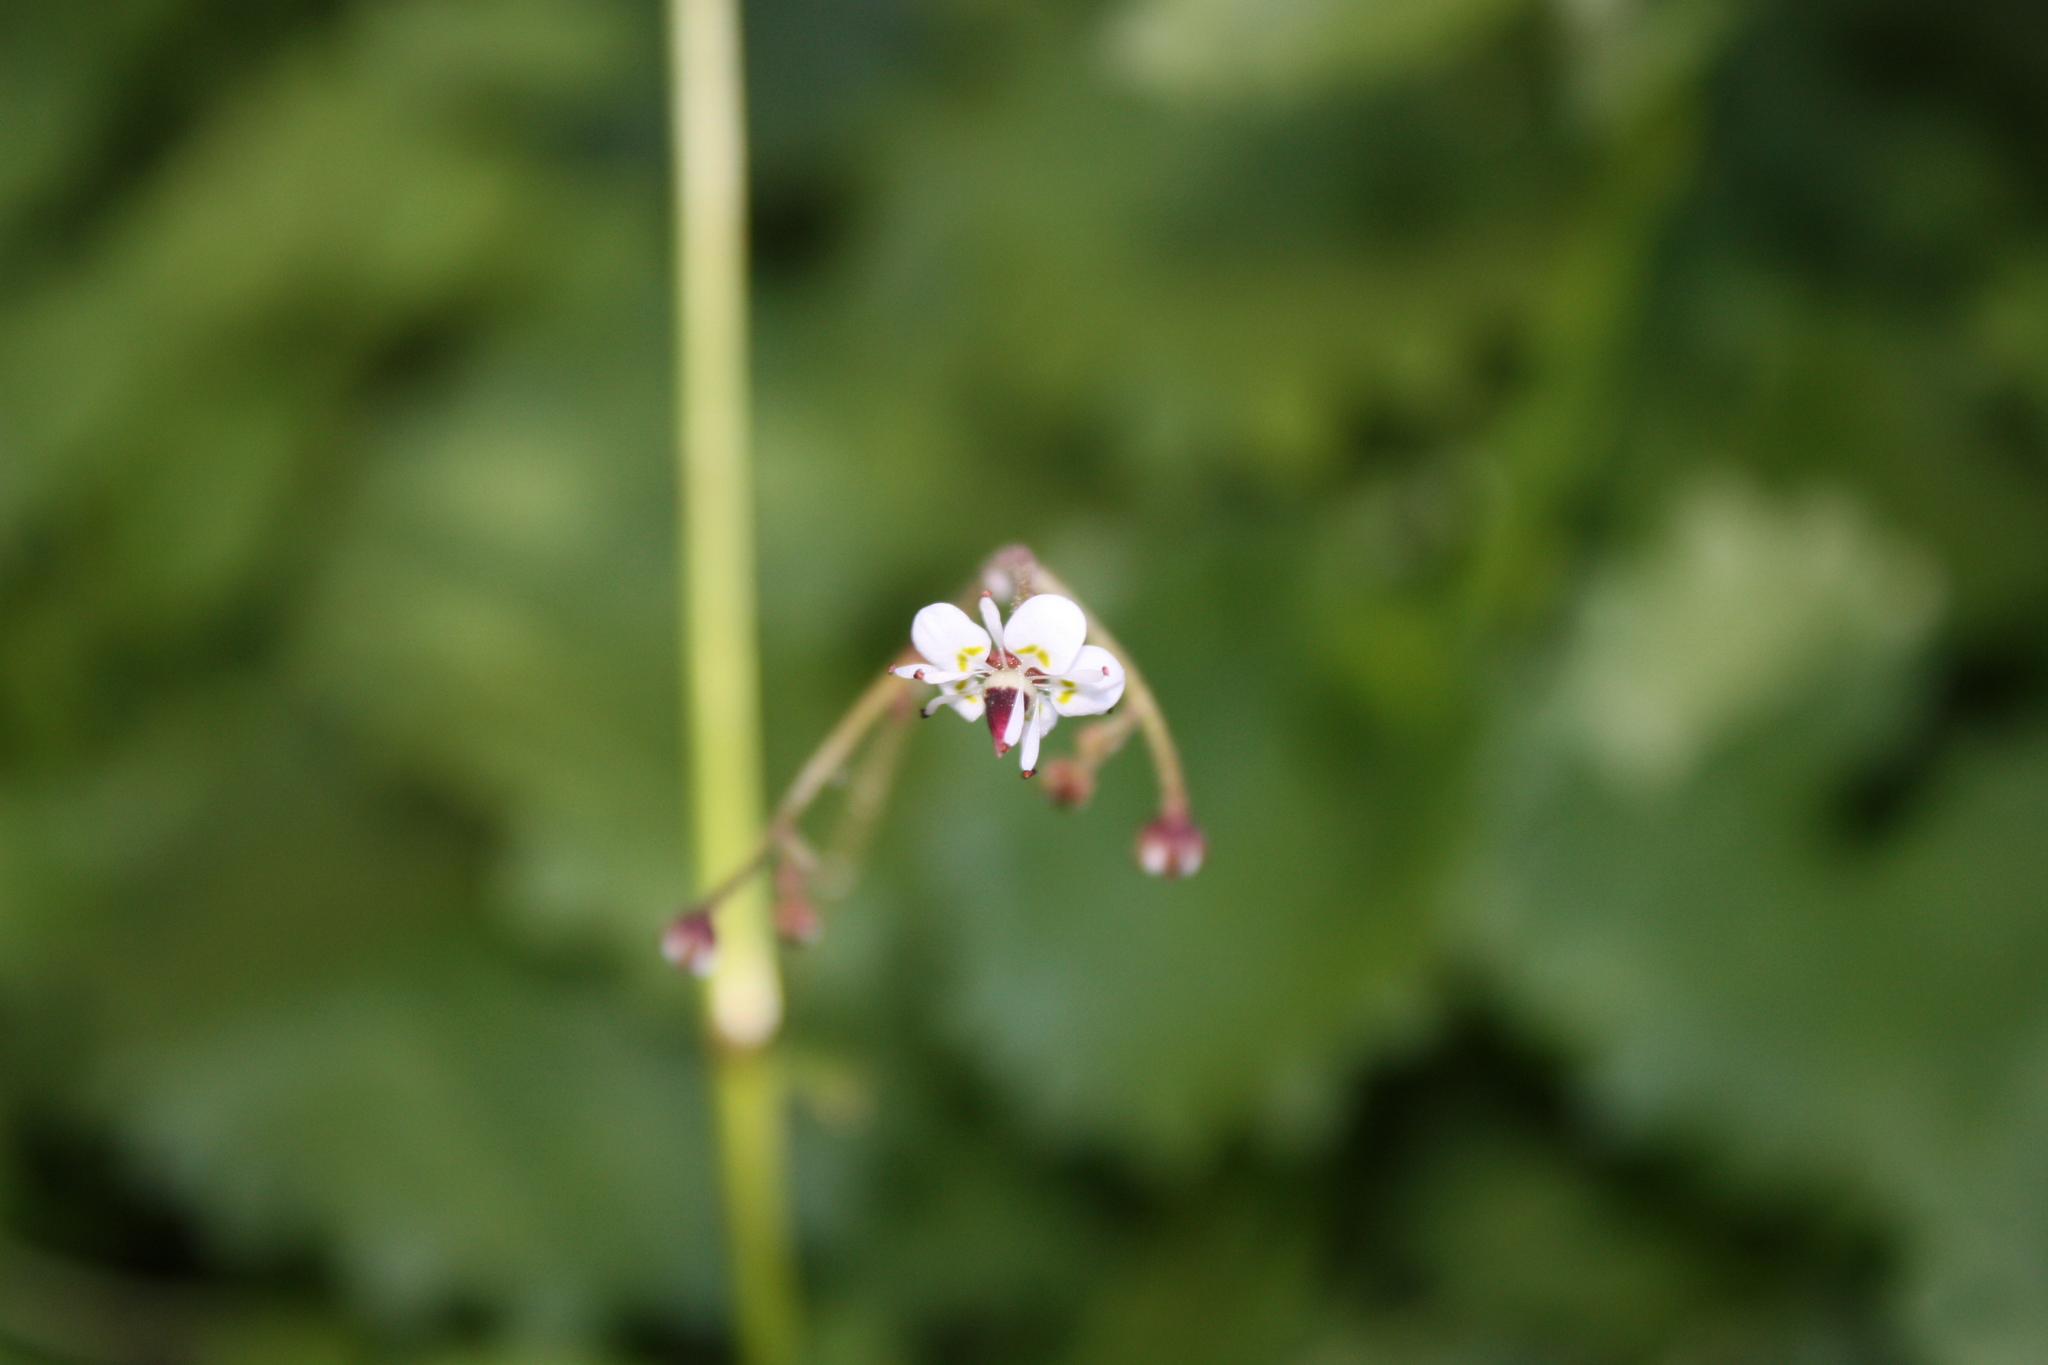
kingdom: Plantae
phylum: Tracheophyta
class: Magnoliopsida
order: Saxifragales
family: Saxifragaceae
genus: Micranthes
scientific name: Micranthes odontoloma
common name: Brook saxifrage
